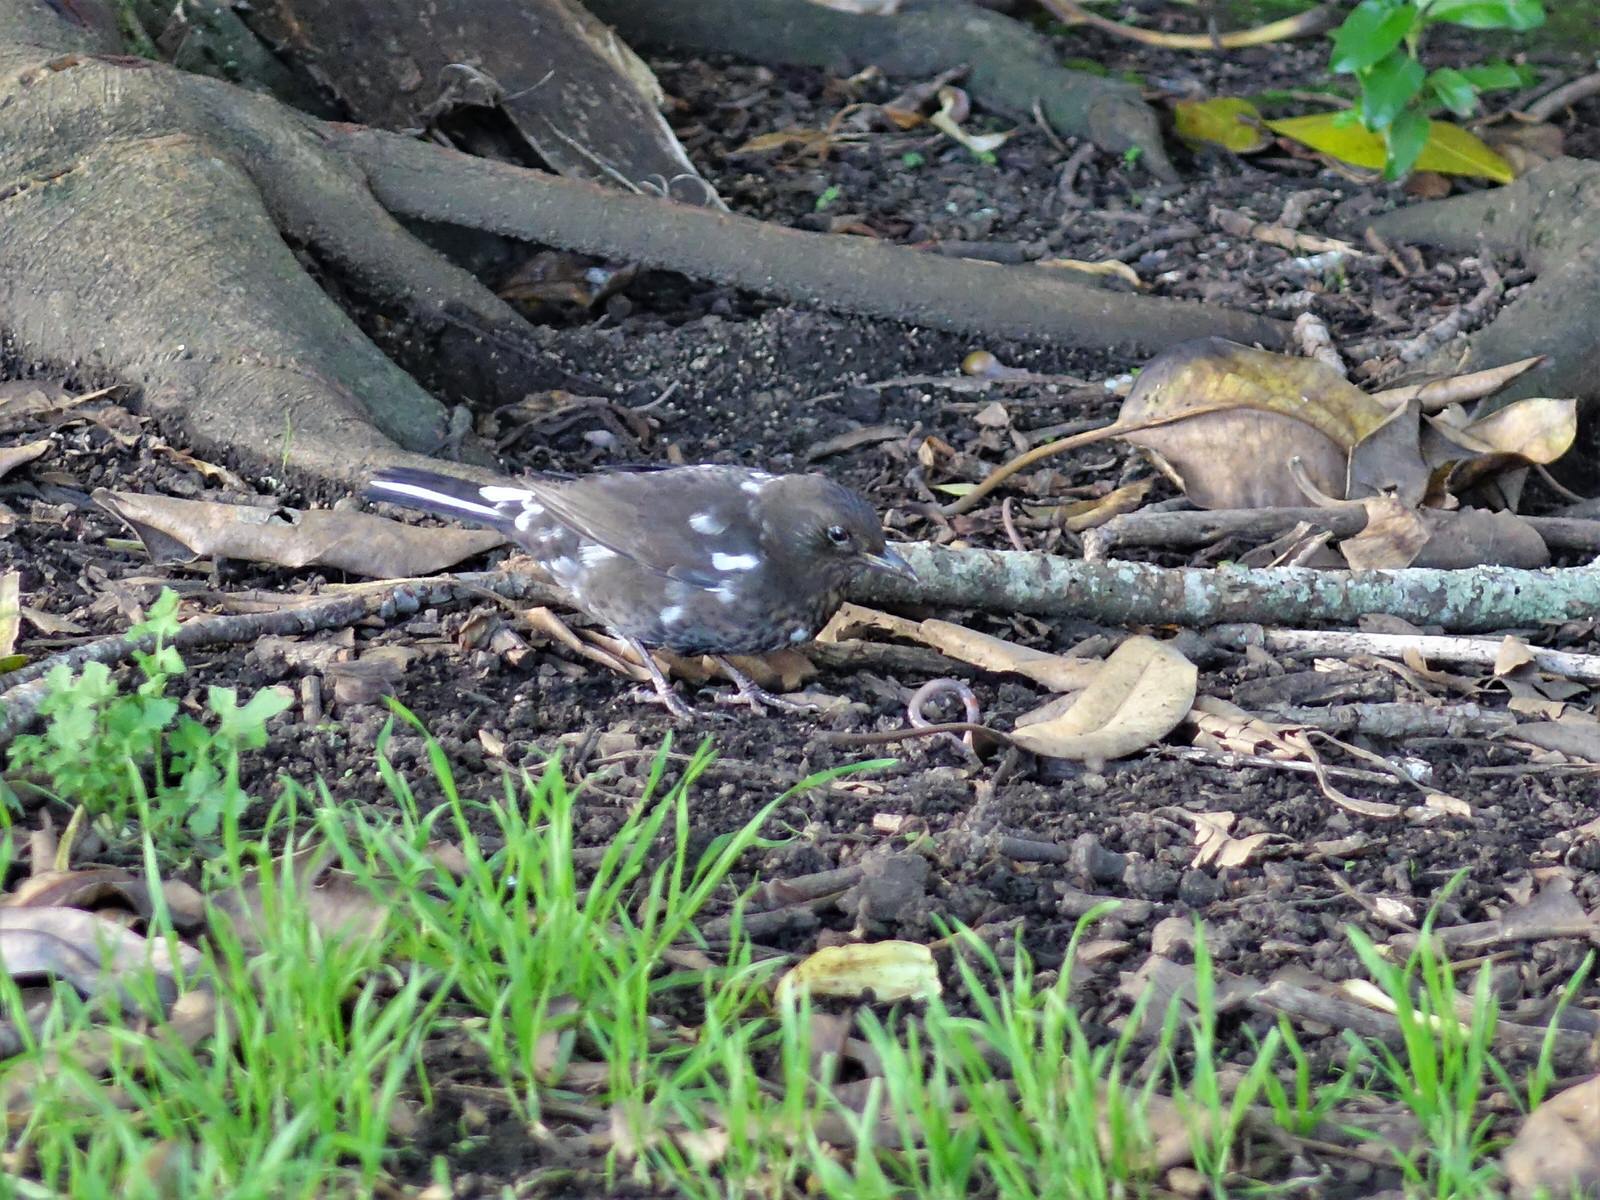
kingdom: Animalia
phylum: Chordata
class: Aves
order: Passeriformes
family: Turdidae
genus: Turdus
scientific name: Turdus merula
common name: Common blackbird
